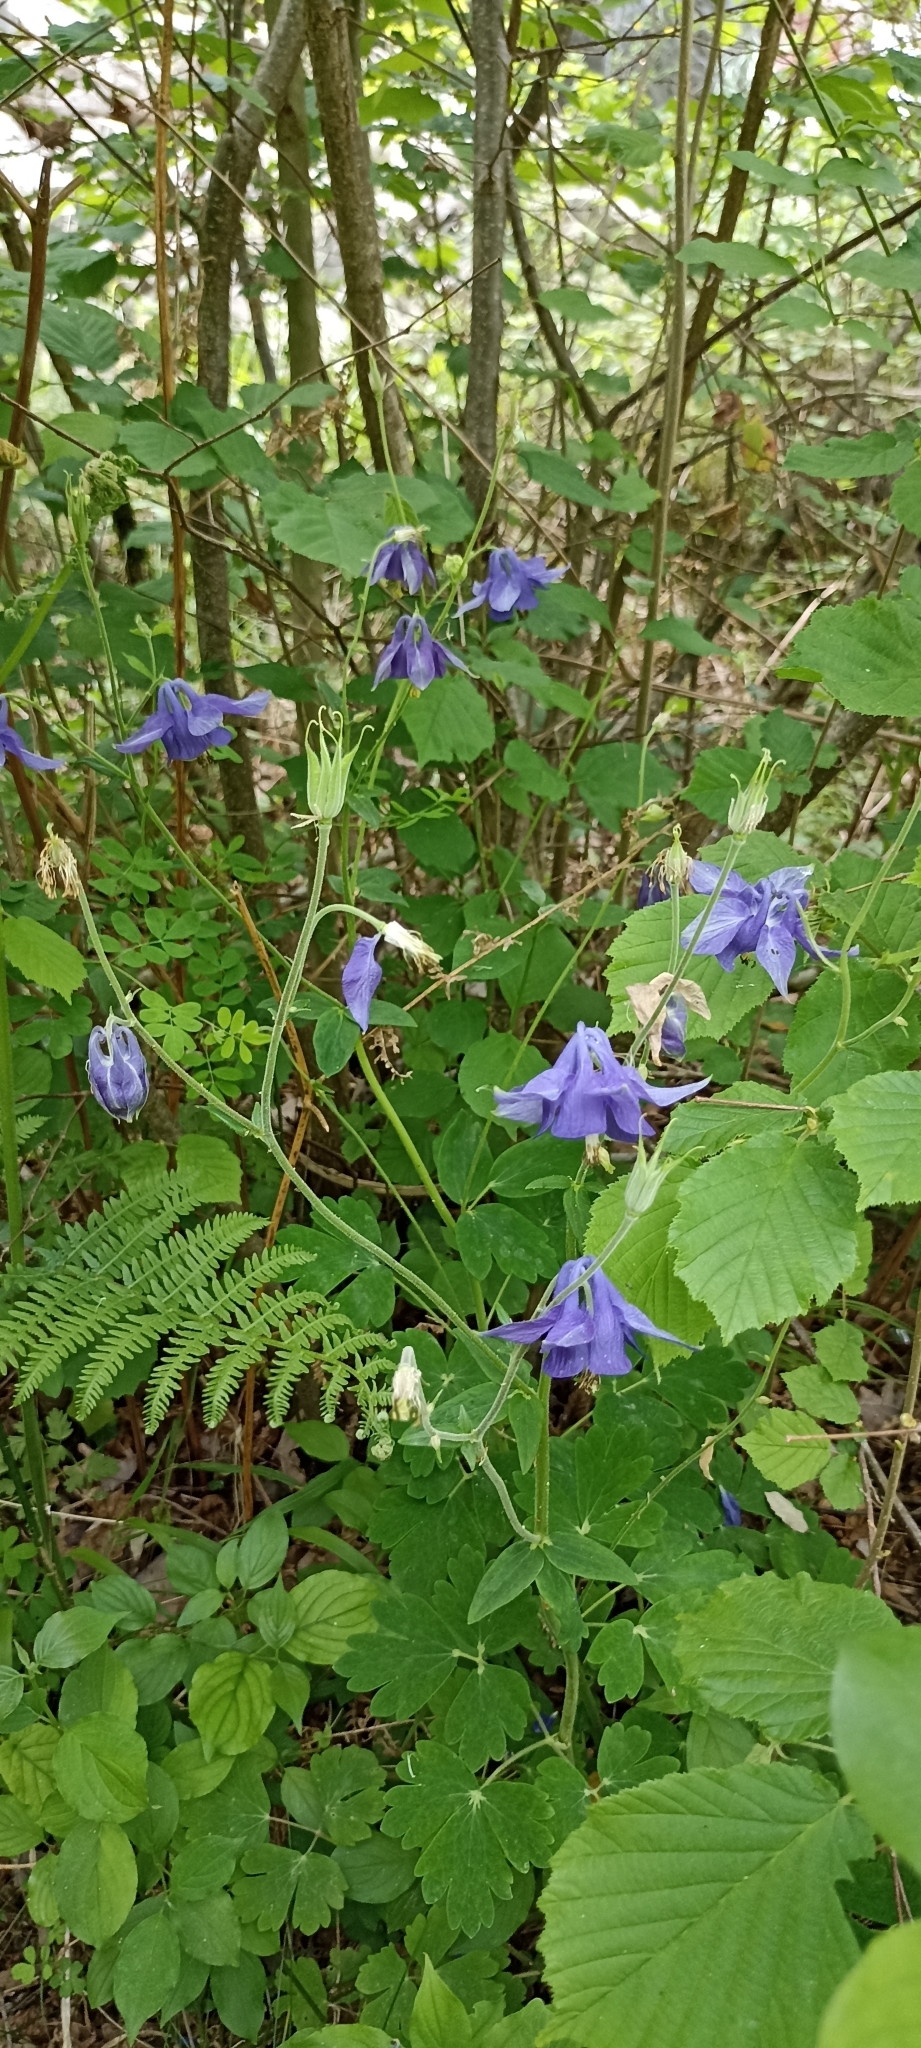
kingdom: Plantae
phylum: Tracheophyta
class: Magnoliopsida
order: Ranunculales
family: Ranunculaceae
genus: Aquilegia
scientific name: Aquilegia vulgaris
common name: Columbine
